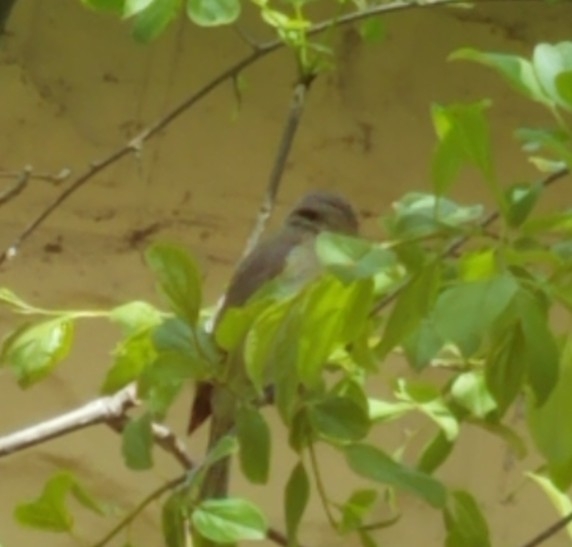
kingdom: Animalia
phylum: Chordata
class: Aves
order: Passeriformes
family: Vireonidae
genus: Vireo
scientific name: Vireo gilvus
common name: Warbling vireo
